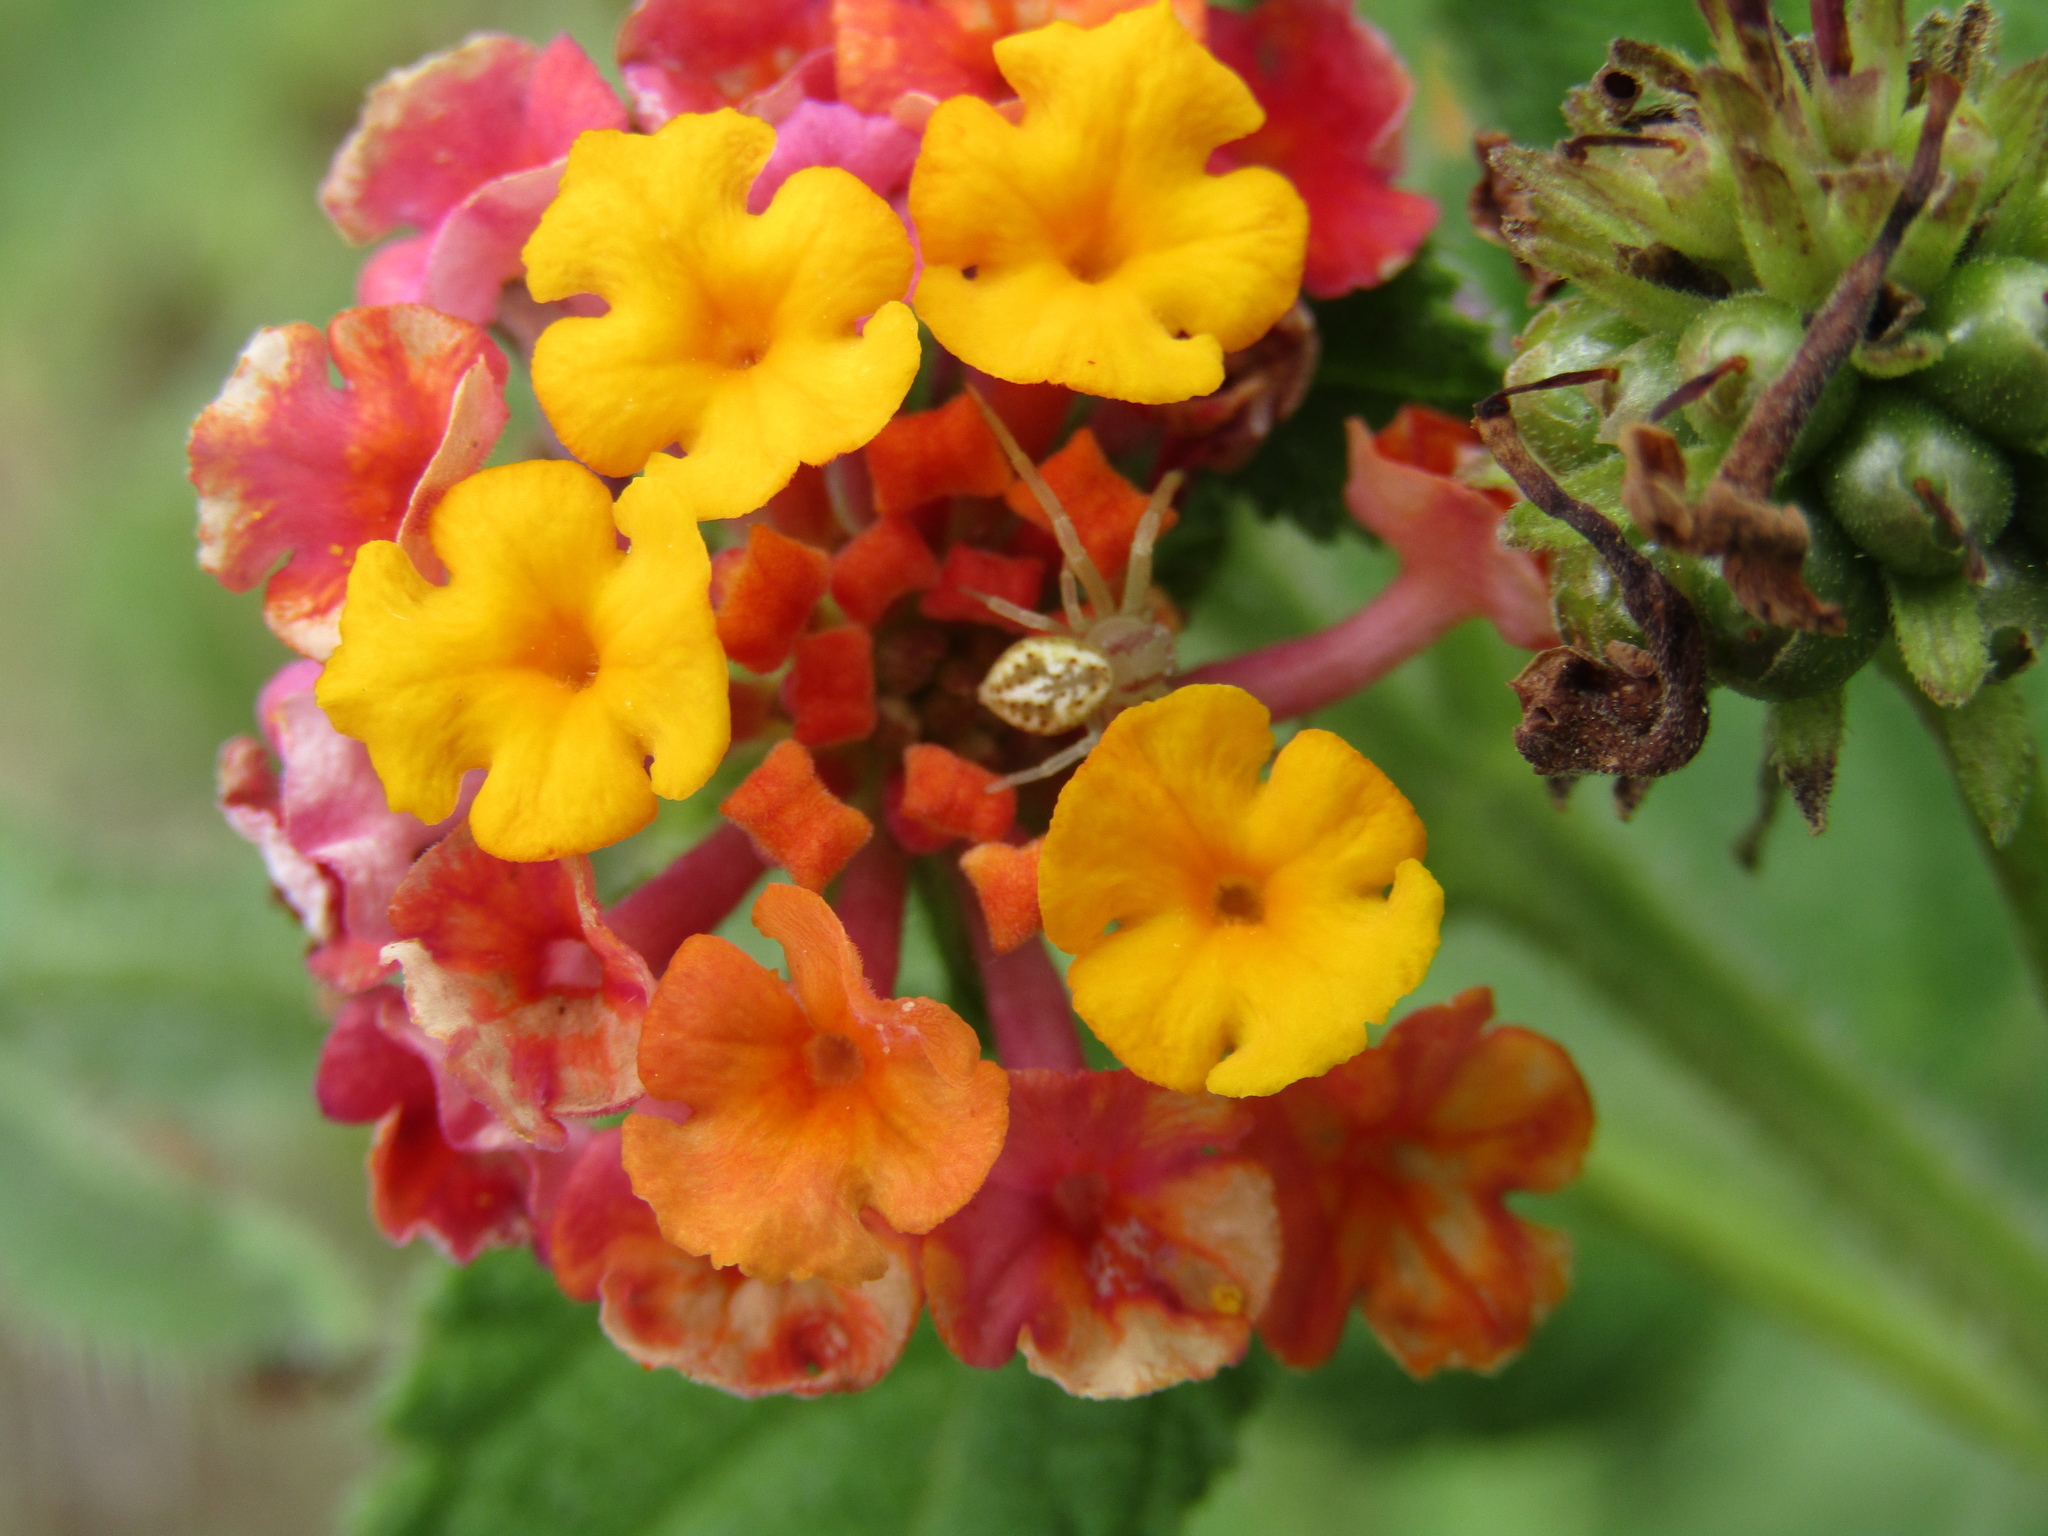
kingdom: Animalia
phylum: Arthropoda
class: Arachnida
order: Araneae
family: Thomisidae
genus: Misumenops
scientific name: Misumenops
